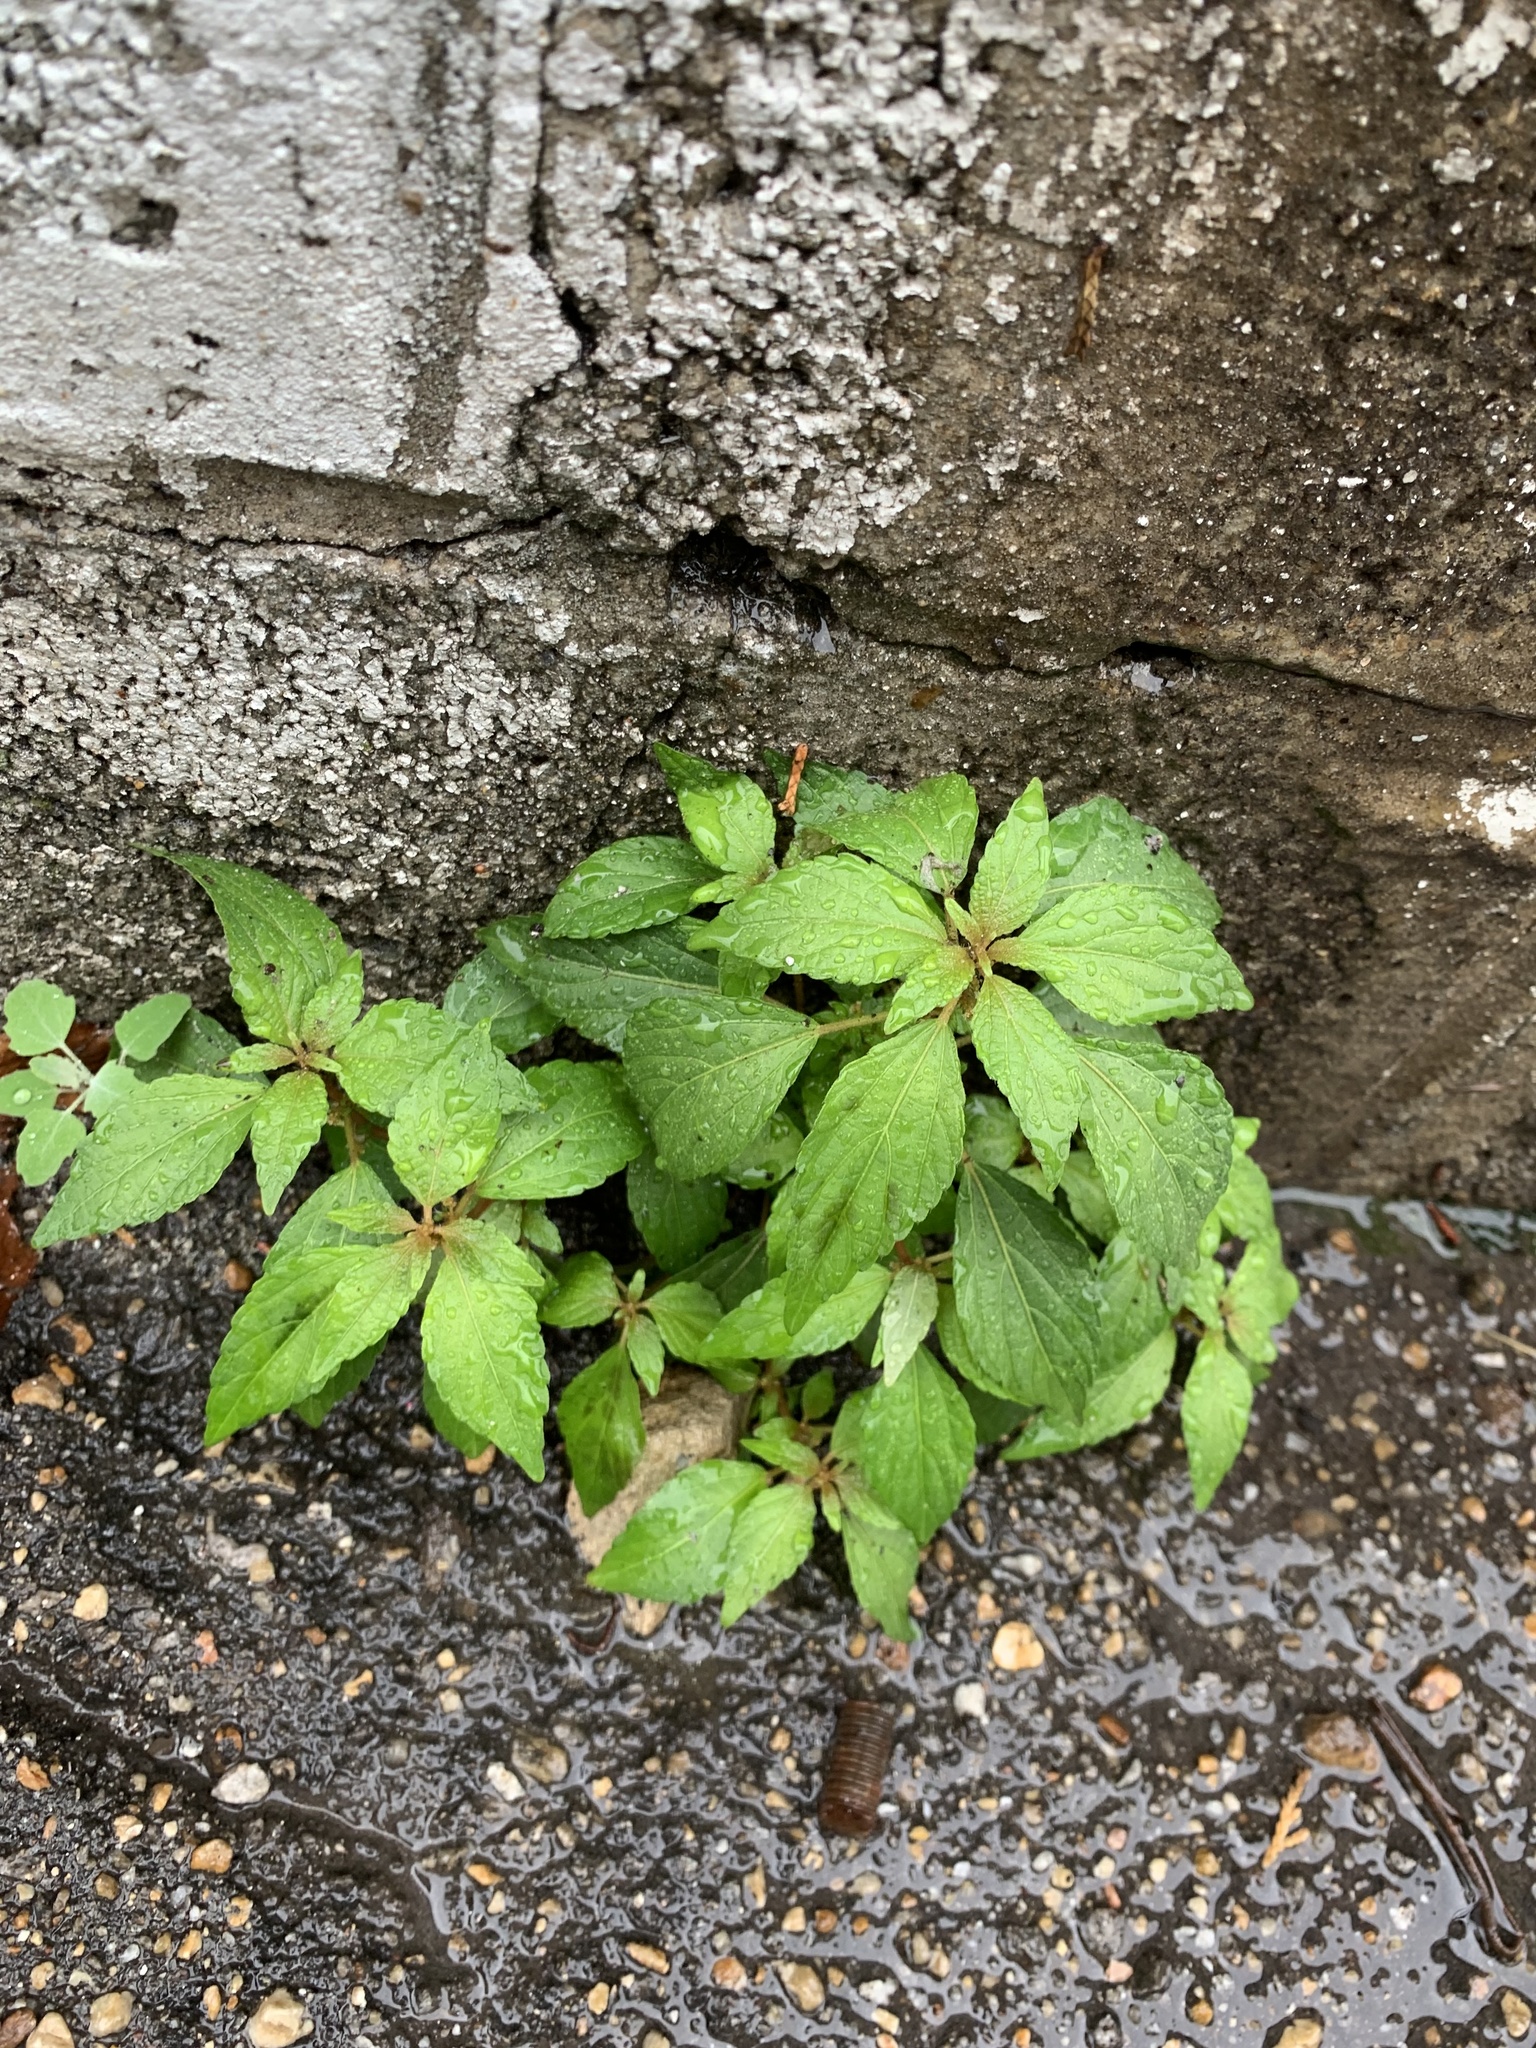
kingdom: Plantae
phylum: Tracheophyta
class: Magnoliopsida
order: Malpighiales
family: Euphorbiaceae
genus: Acalypha
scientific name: Acalypha rhomboidea
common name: Rhombic copperleaf
